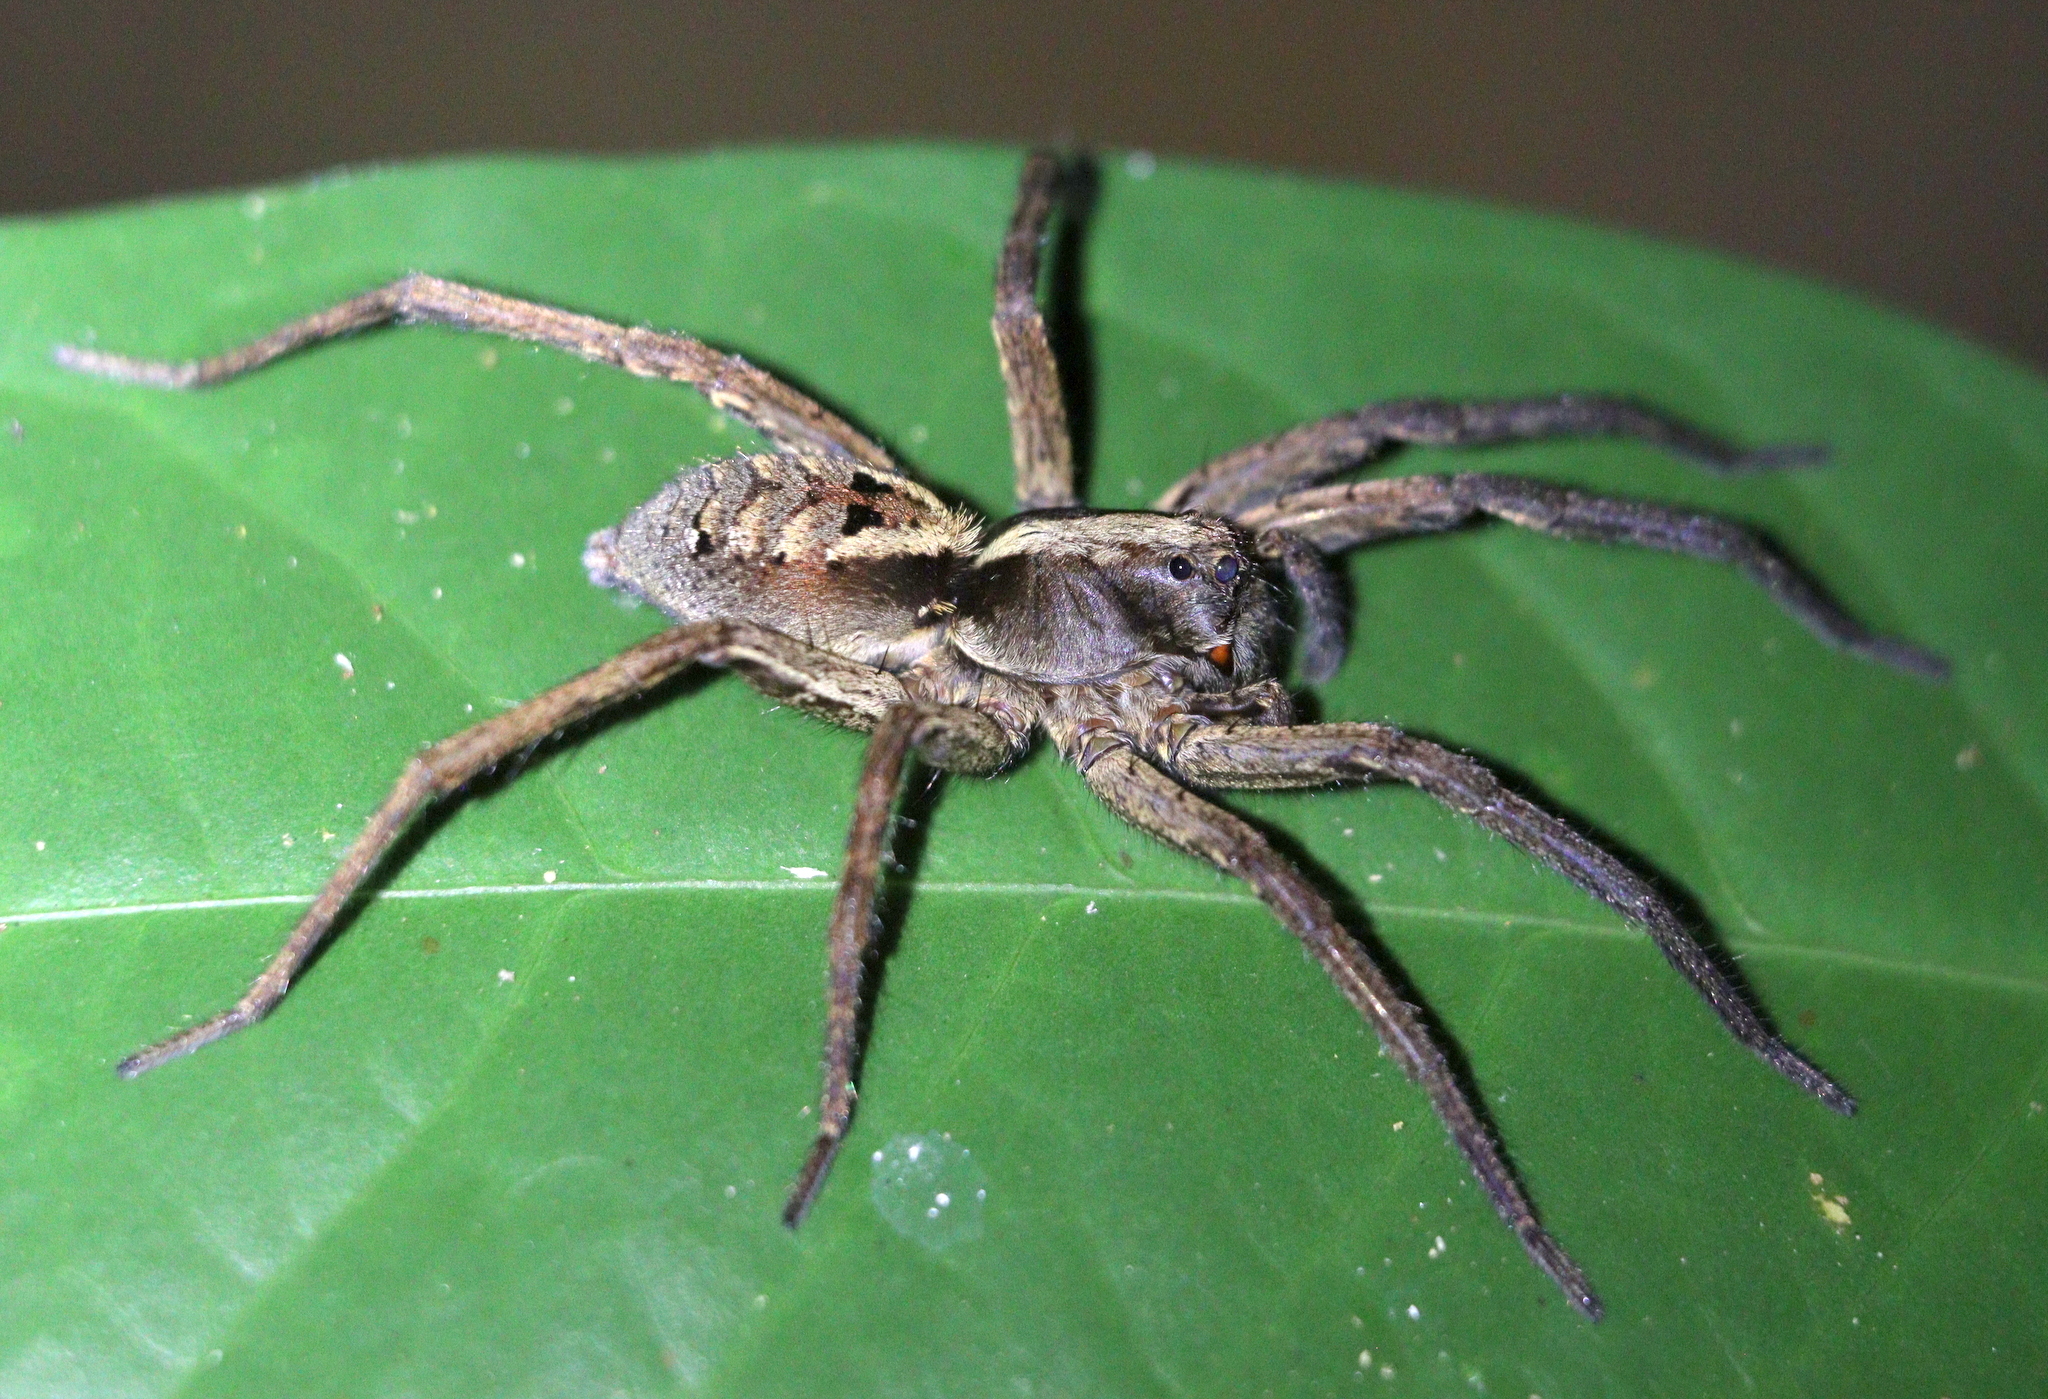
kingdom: Animalia
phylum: Arthropoda
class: Arachnida
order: Araneae
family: Lycosidae
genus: Hogna
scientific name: Hogna gumia
